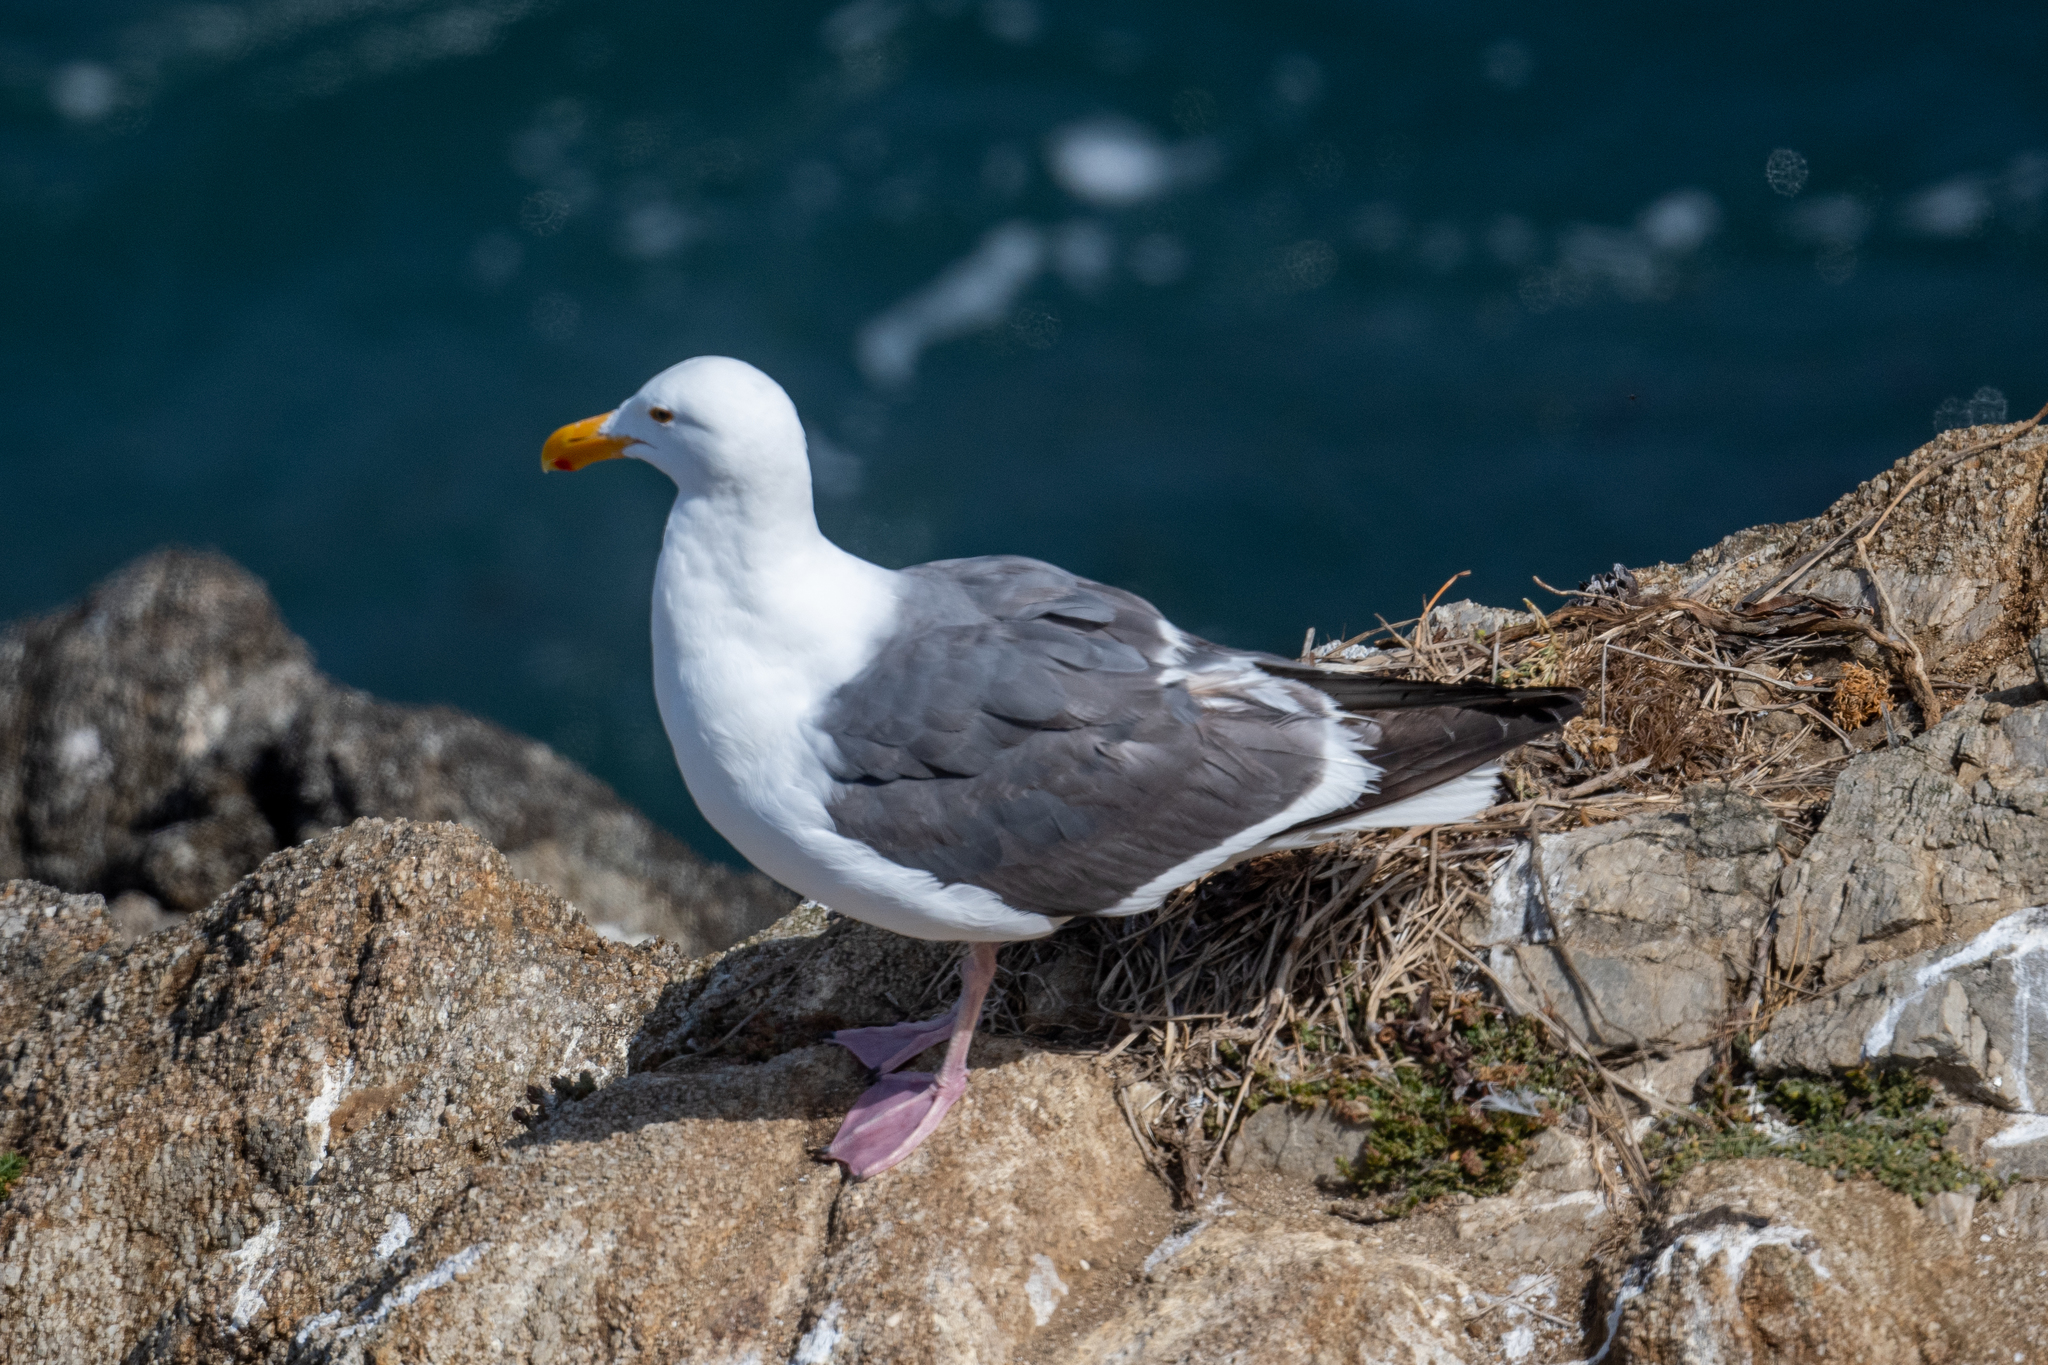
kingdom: Animalia
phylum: Chordata
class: Aves
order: Charadriiformes
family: Laridae
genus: Larus
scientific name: Larus occidentalis
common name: Western gull
